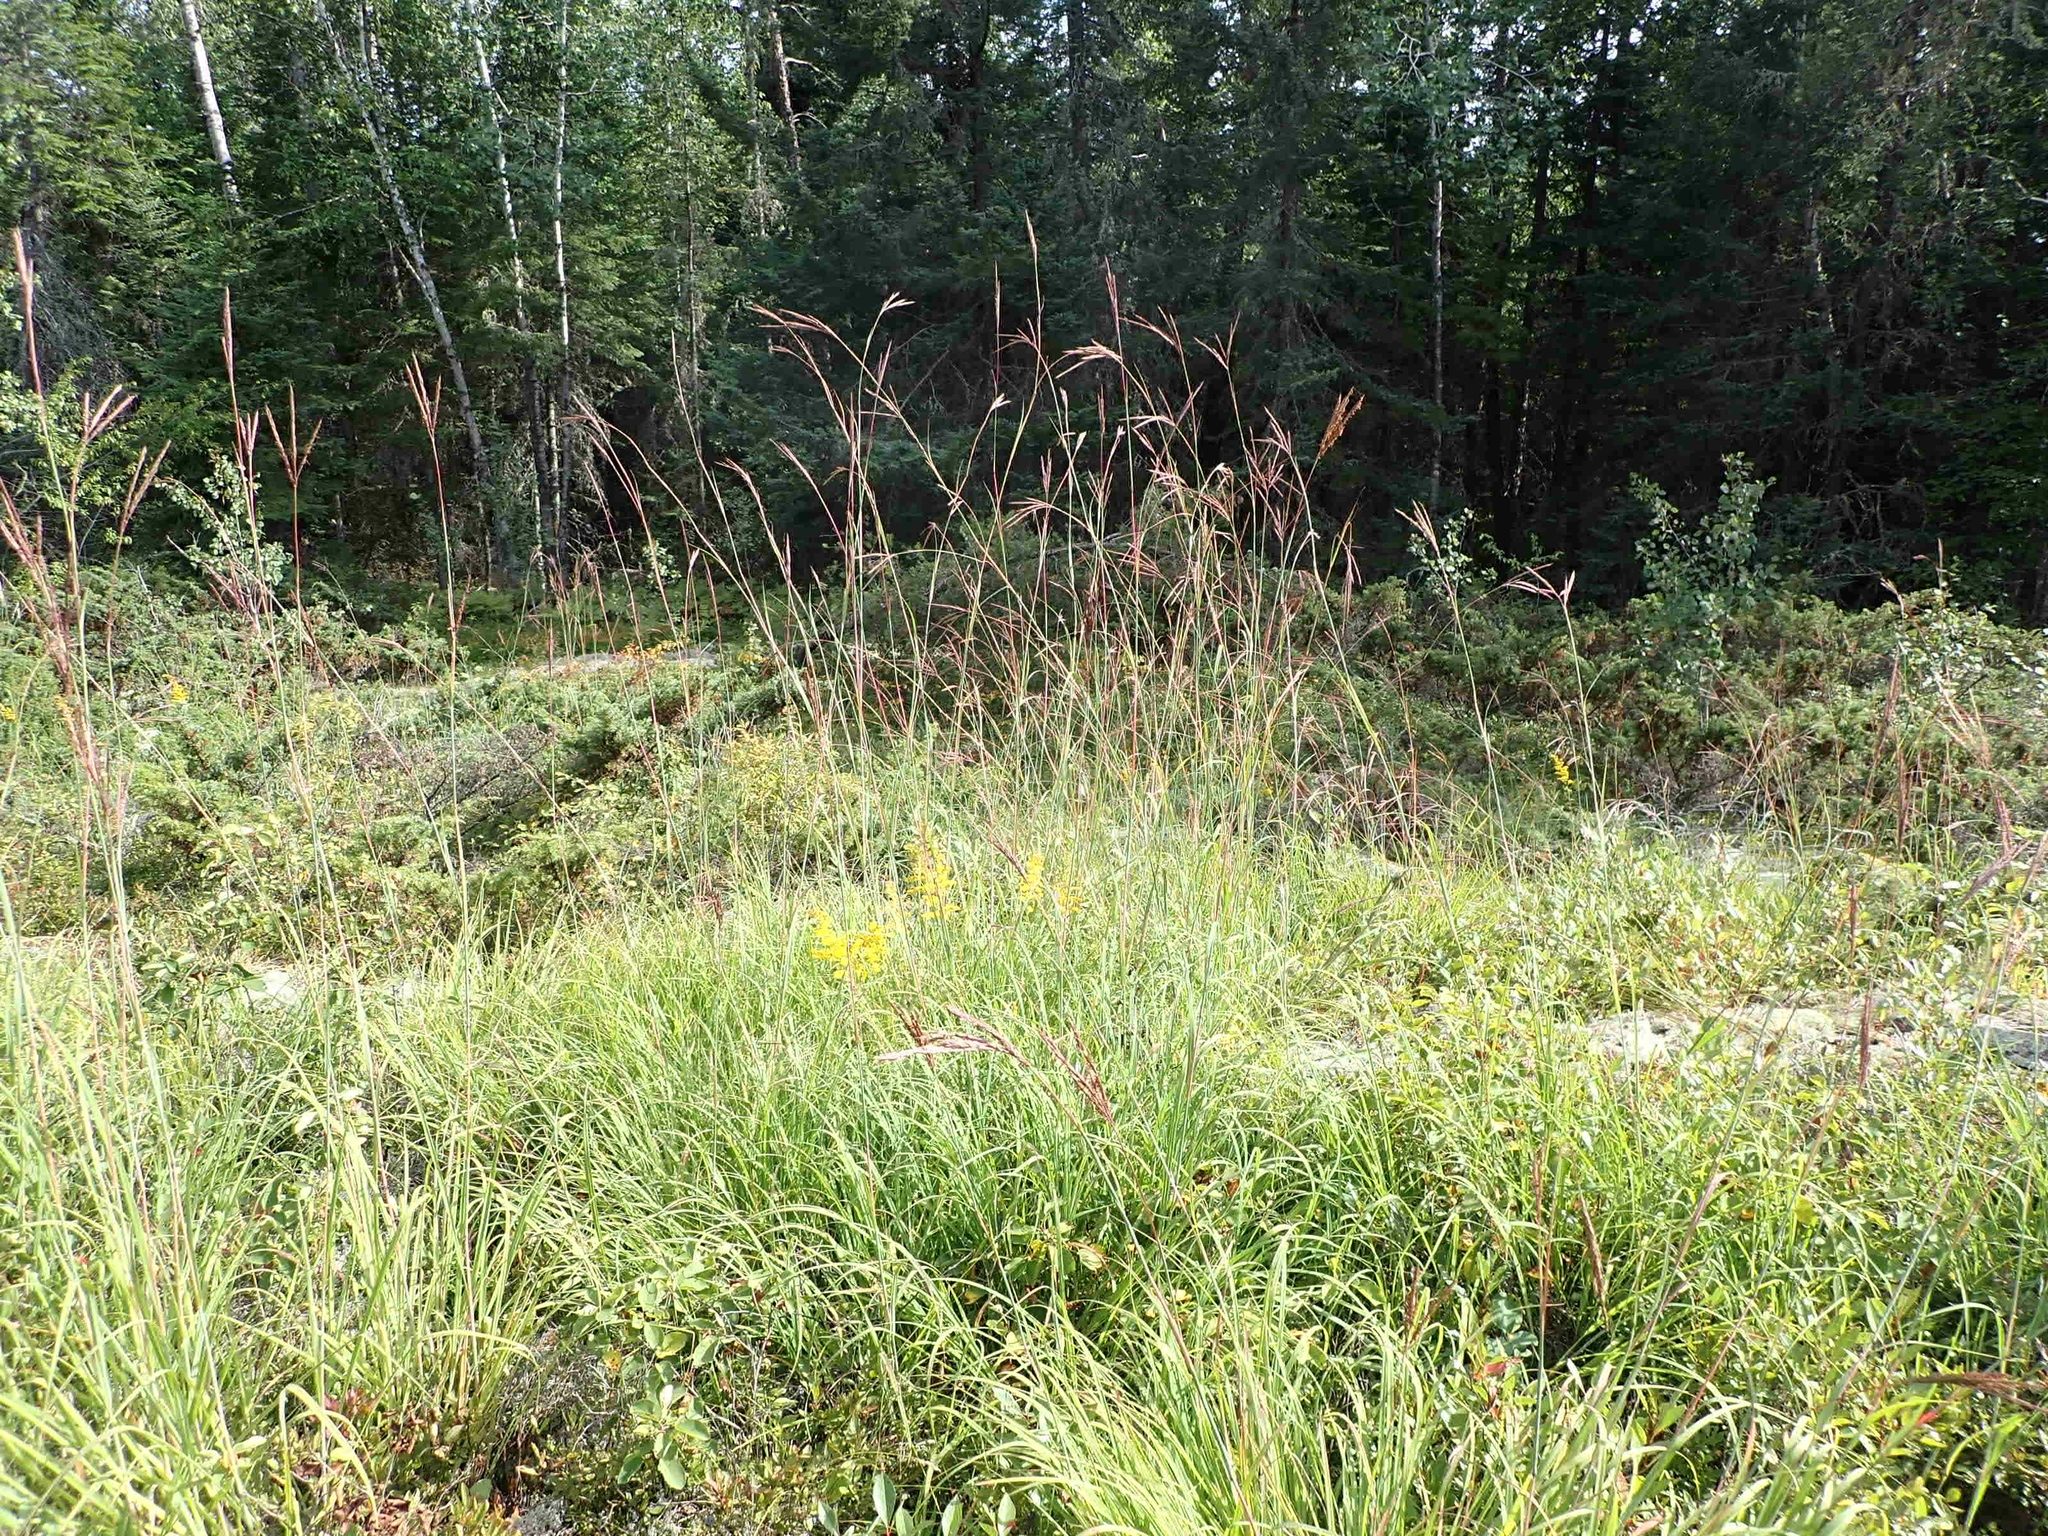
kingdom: Plantae
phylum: Tracheophyta
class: Liliopsida
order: Poales
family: Poaceae
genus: Andropogon
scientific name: Andropogon gerardi
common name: Big bluestem
